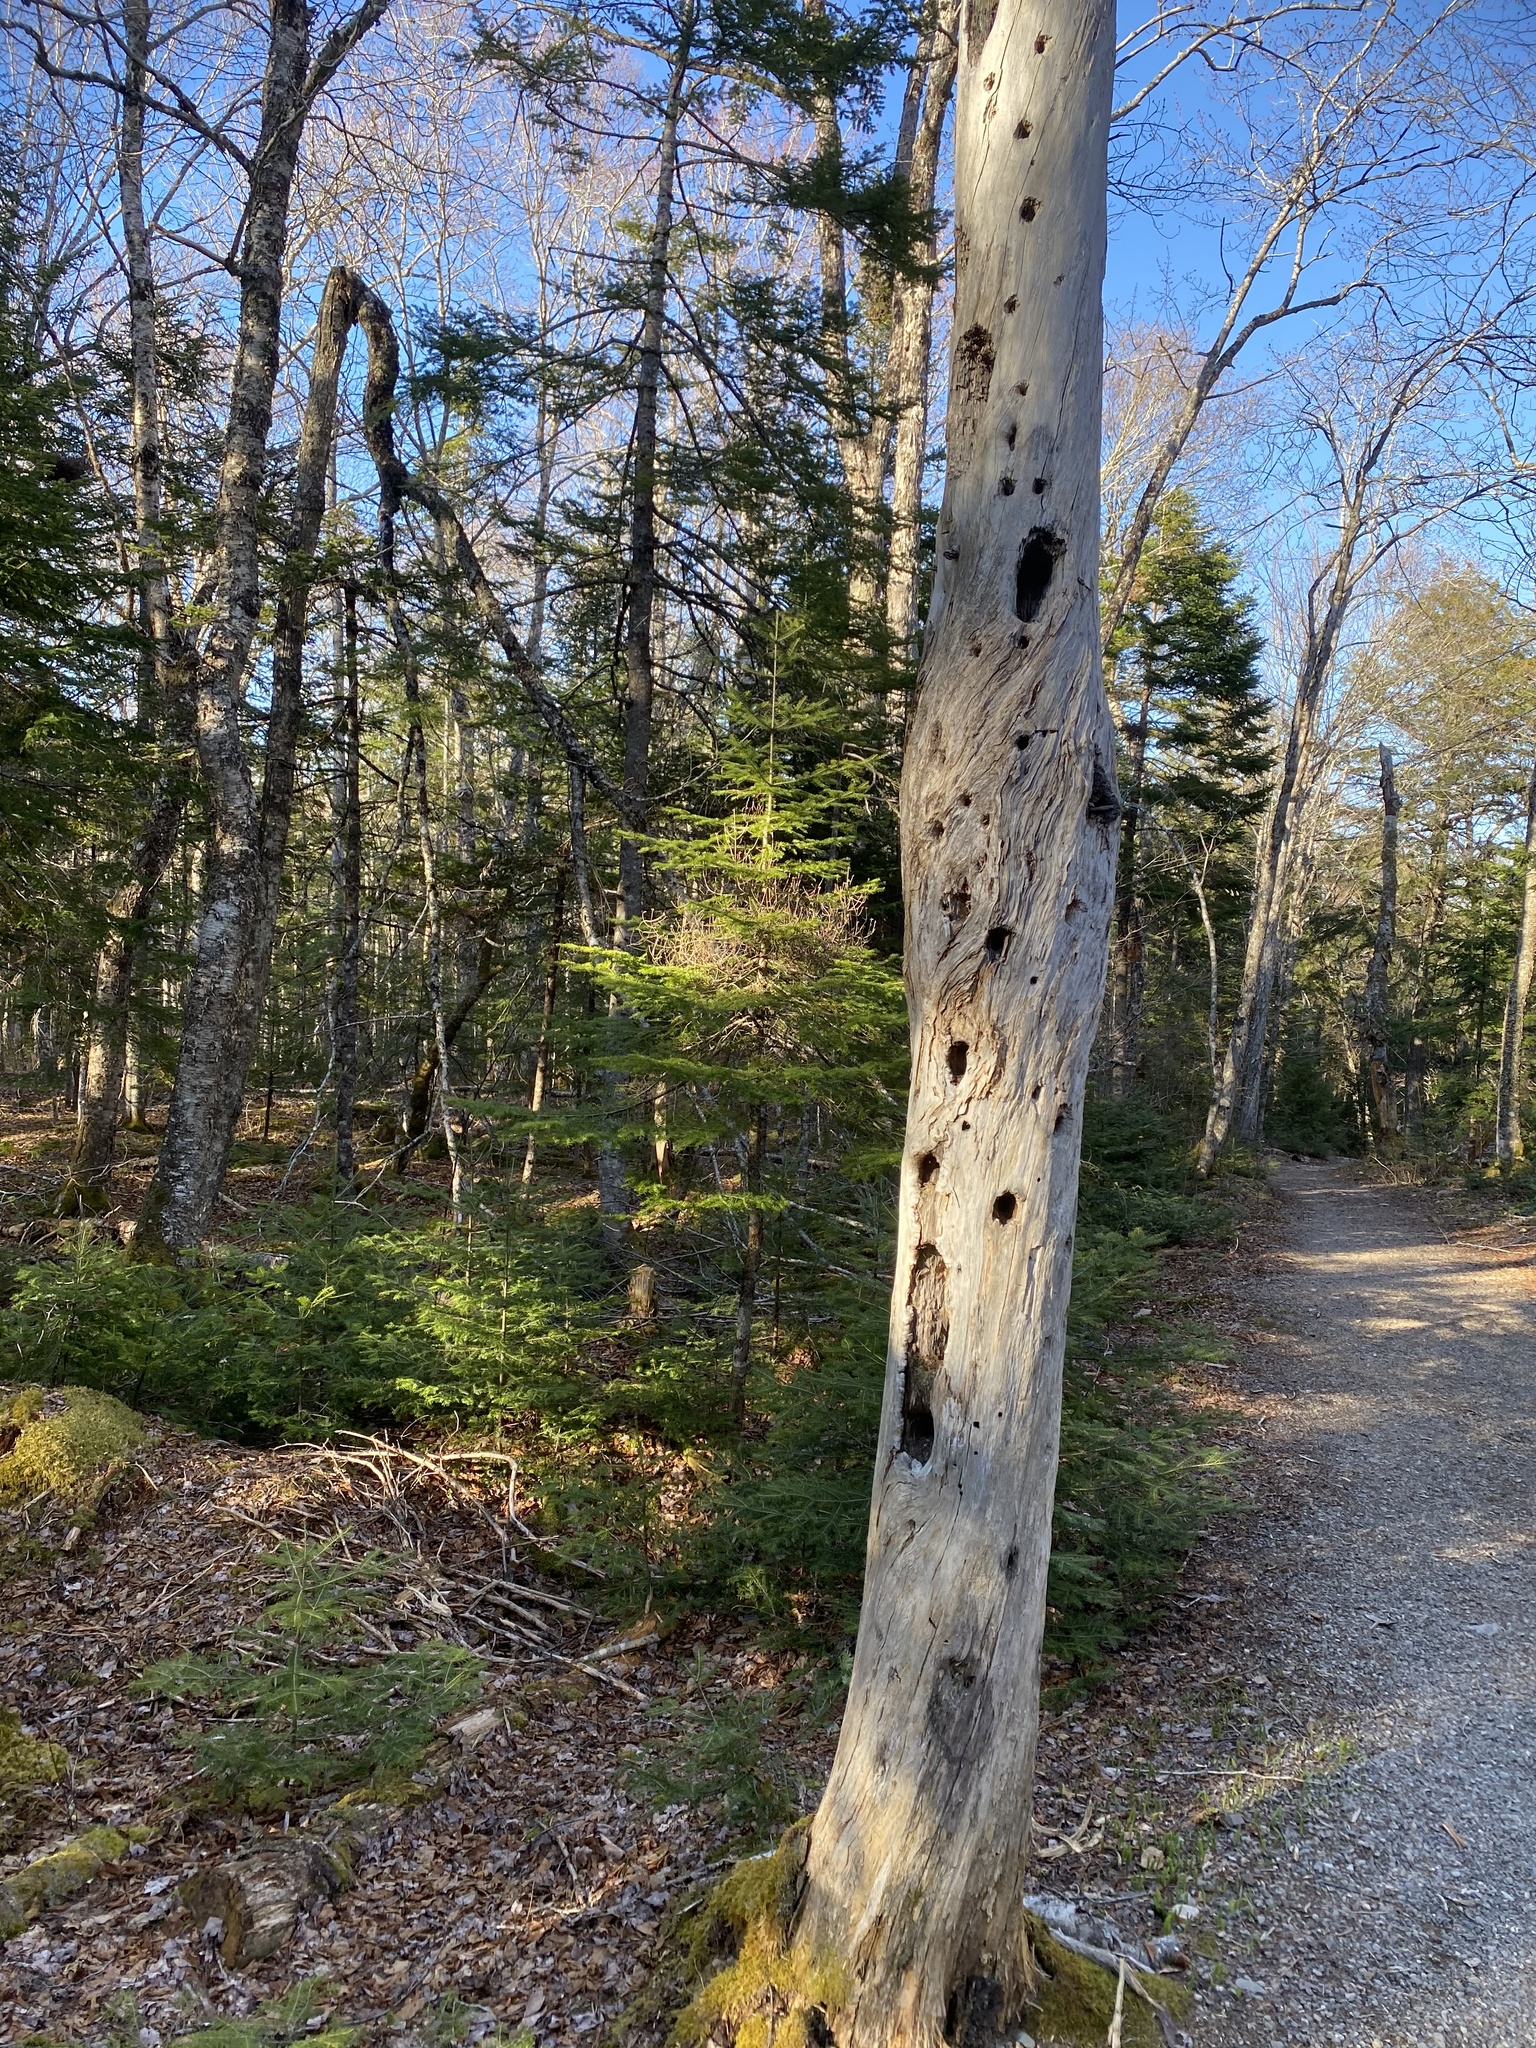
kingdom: Animalia
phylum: Chordata
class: Aves
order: Piciformes
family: Picidae
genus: Dryocopus
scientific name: Dryocopus pileatus
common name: Pileated woodpecker
